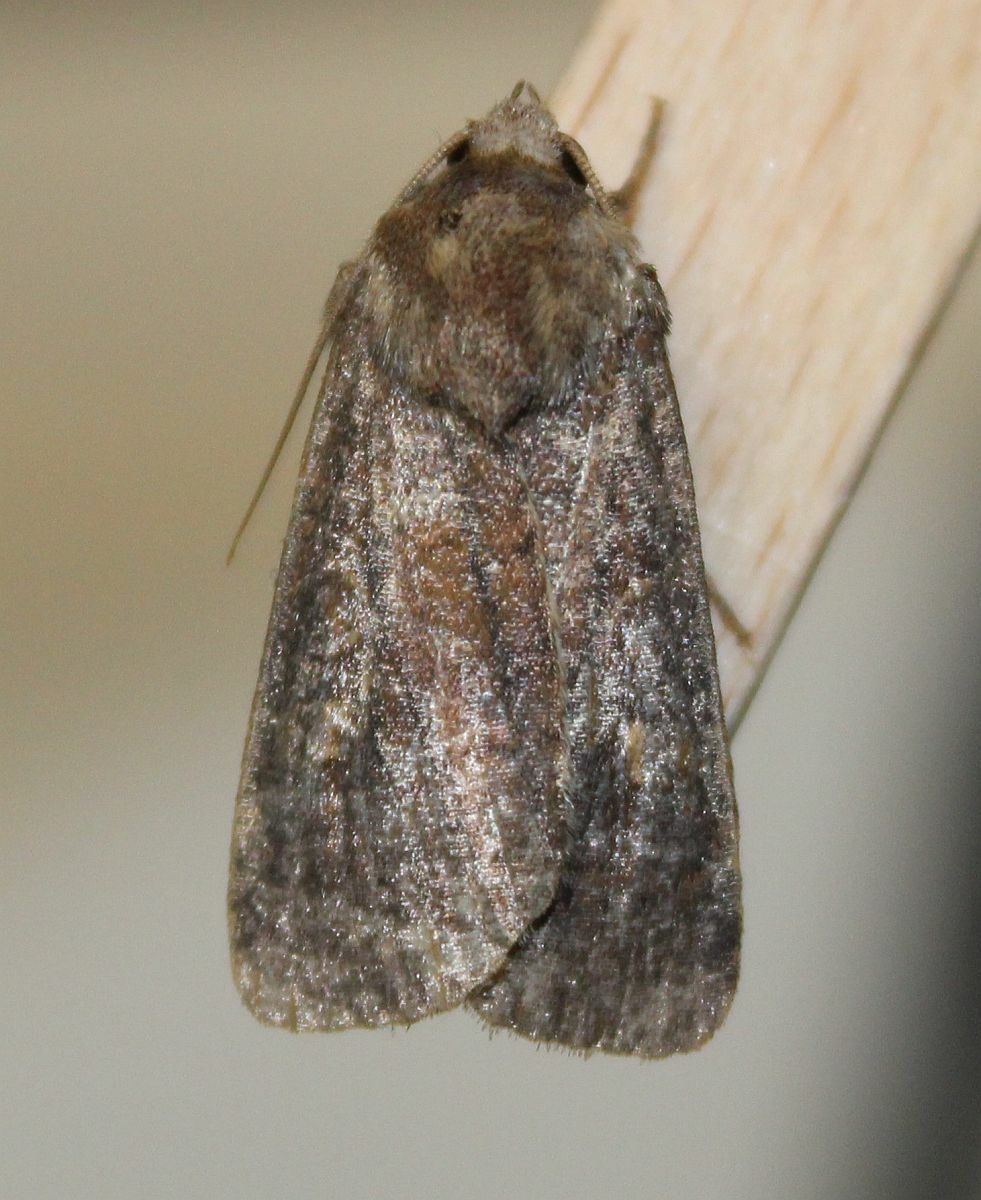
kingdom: Animalia
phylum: Arthropoda
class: Insecta
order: Lepidoptera
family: Noctuidae
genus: Xestia
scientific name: Xestia xanthographa
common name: Square-spot rustic
